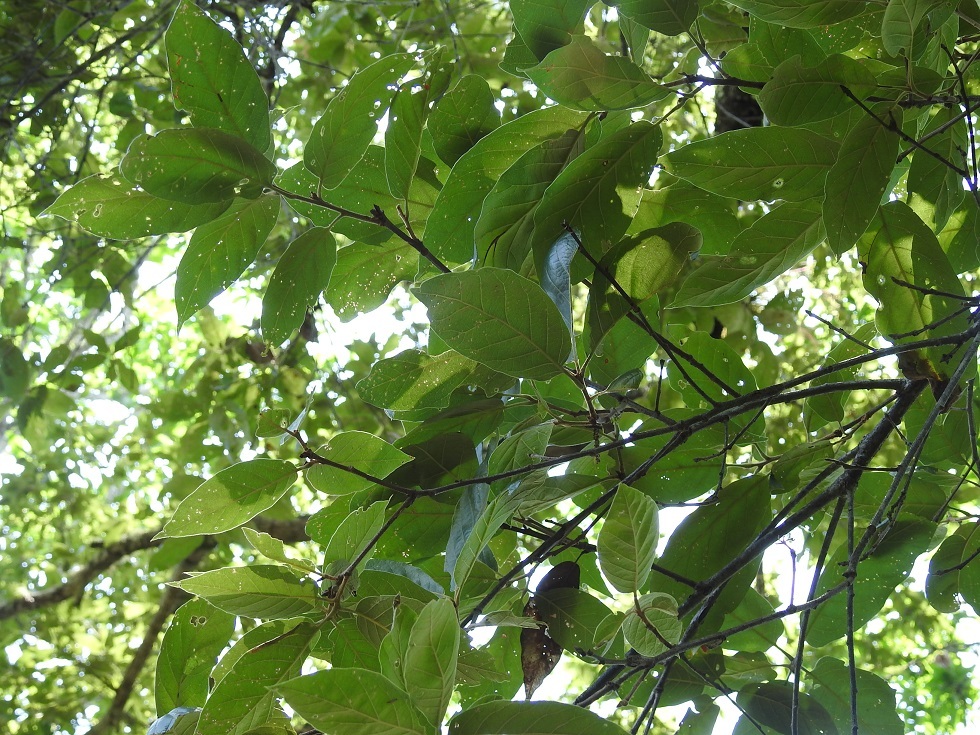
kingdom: Plantae
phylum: Tracheophyta
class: Magnoliopsida
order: Fagales
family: Fagaceae
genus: Quercus
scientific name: Quercus dysophylla
